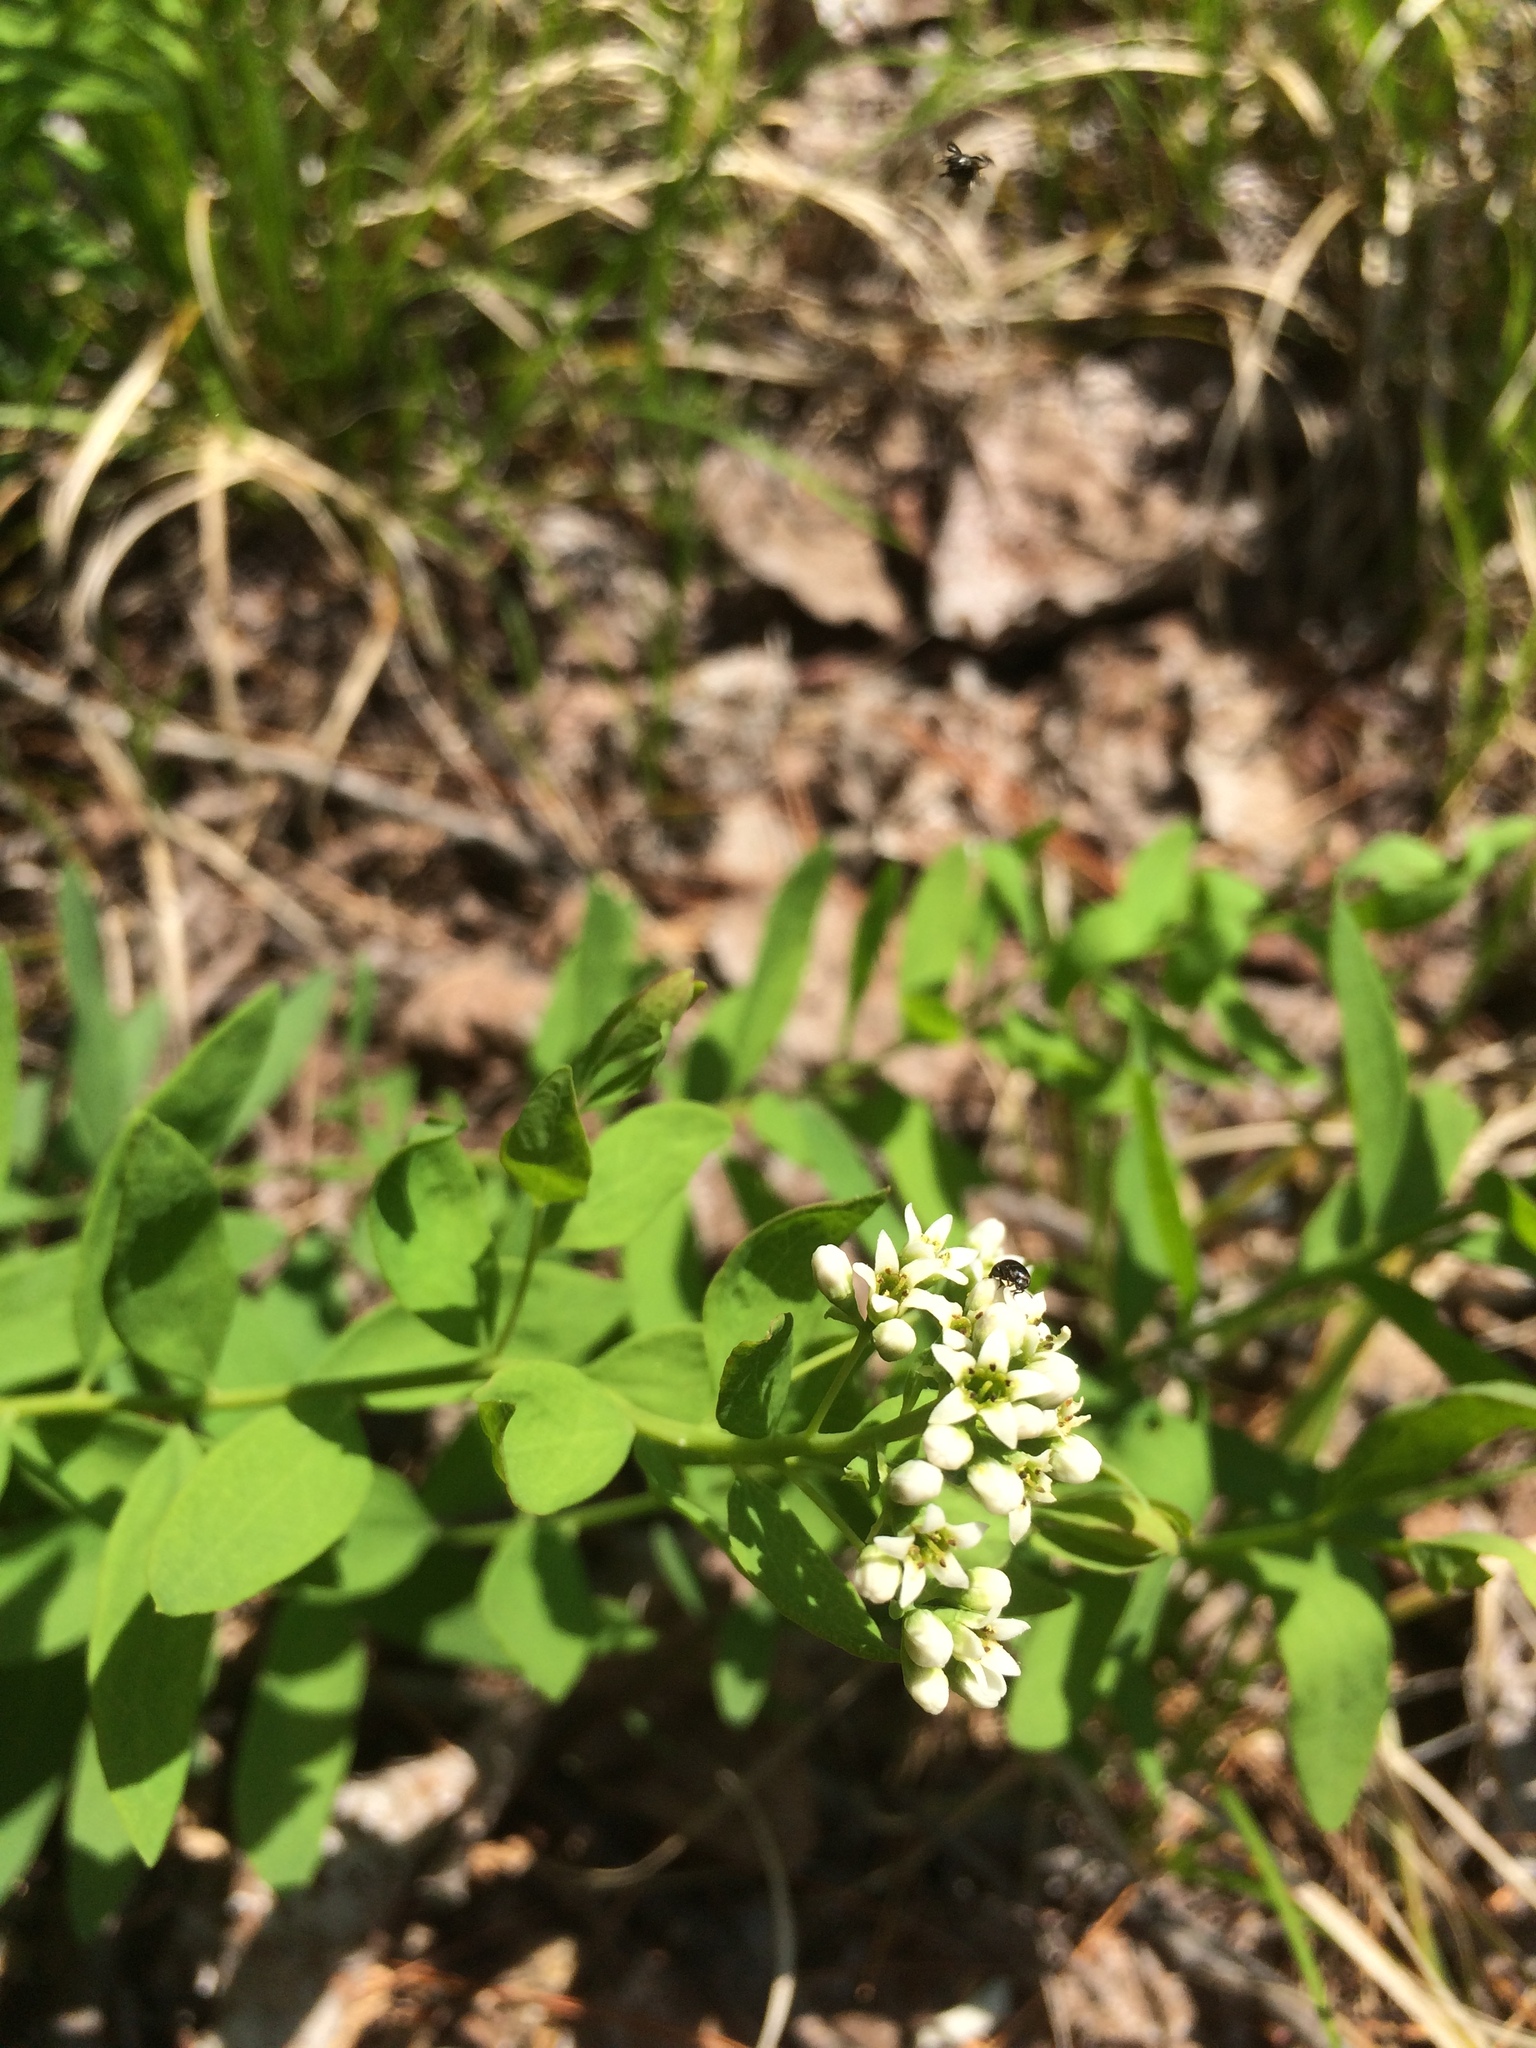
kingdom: Plantae
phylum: Tracheophyta
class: Magnoliopsida
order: Santalales
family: Comandraceae
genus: Comandra
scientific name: Comandra umbellata
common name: Bastard toadflax
